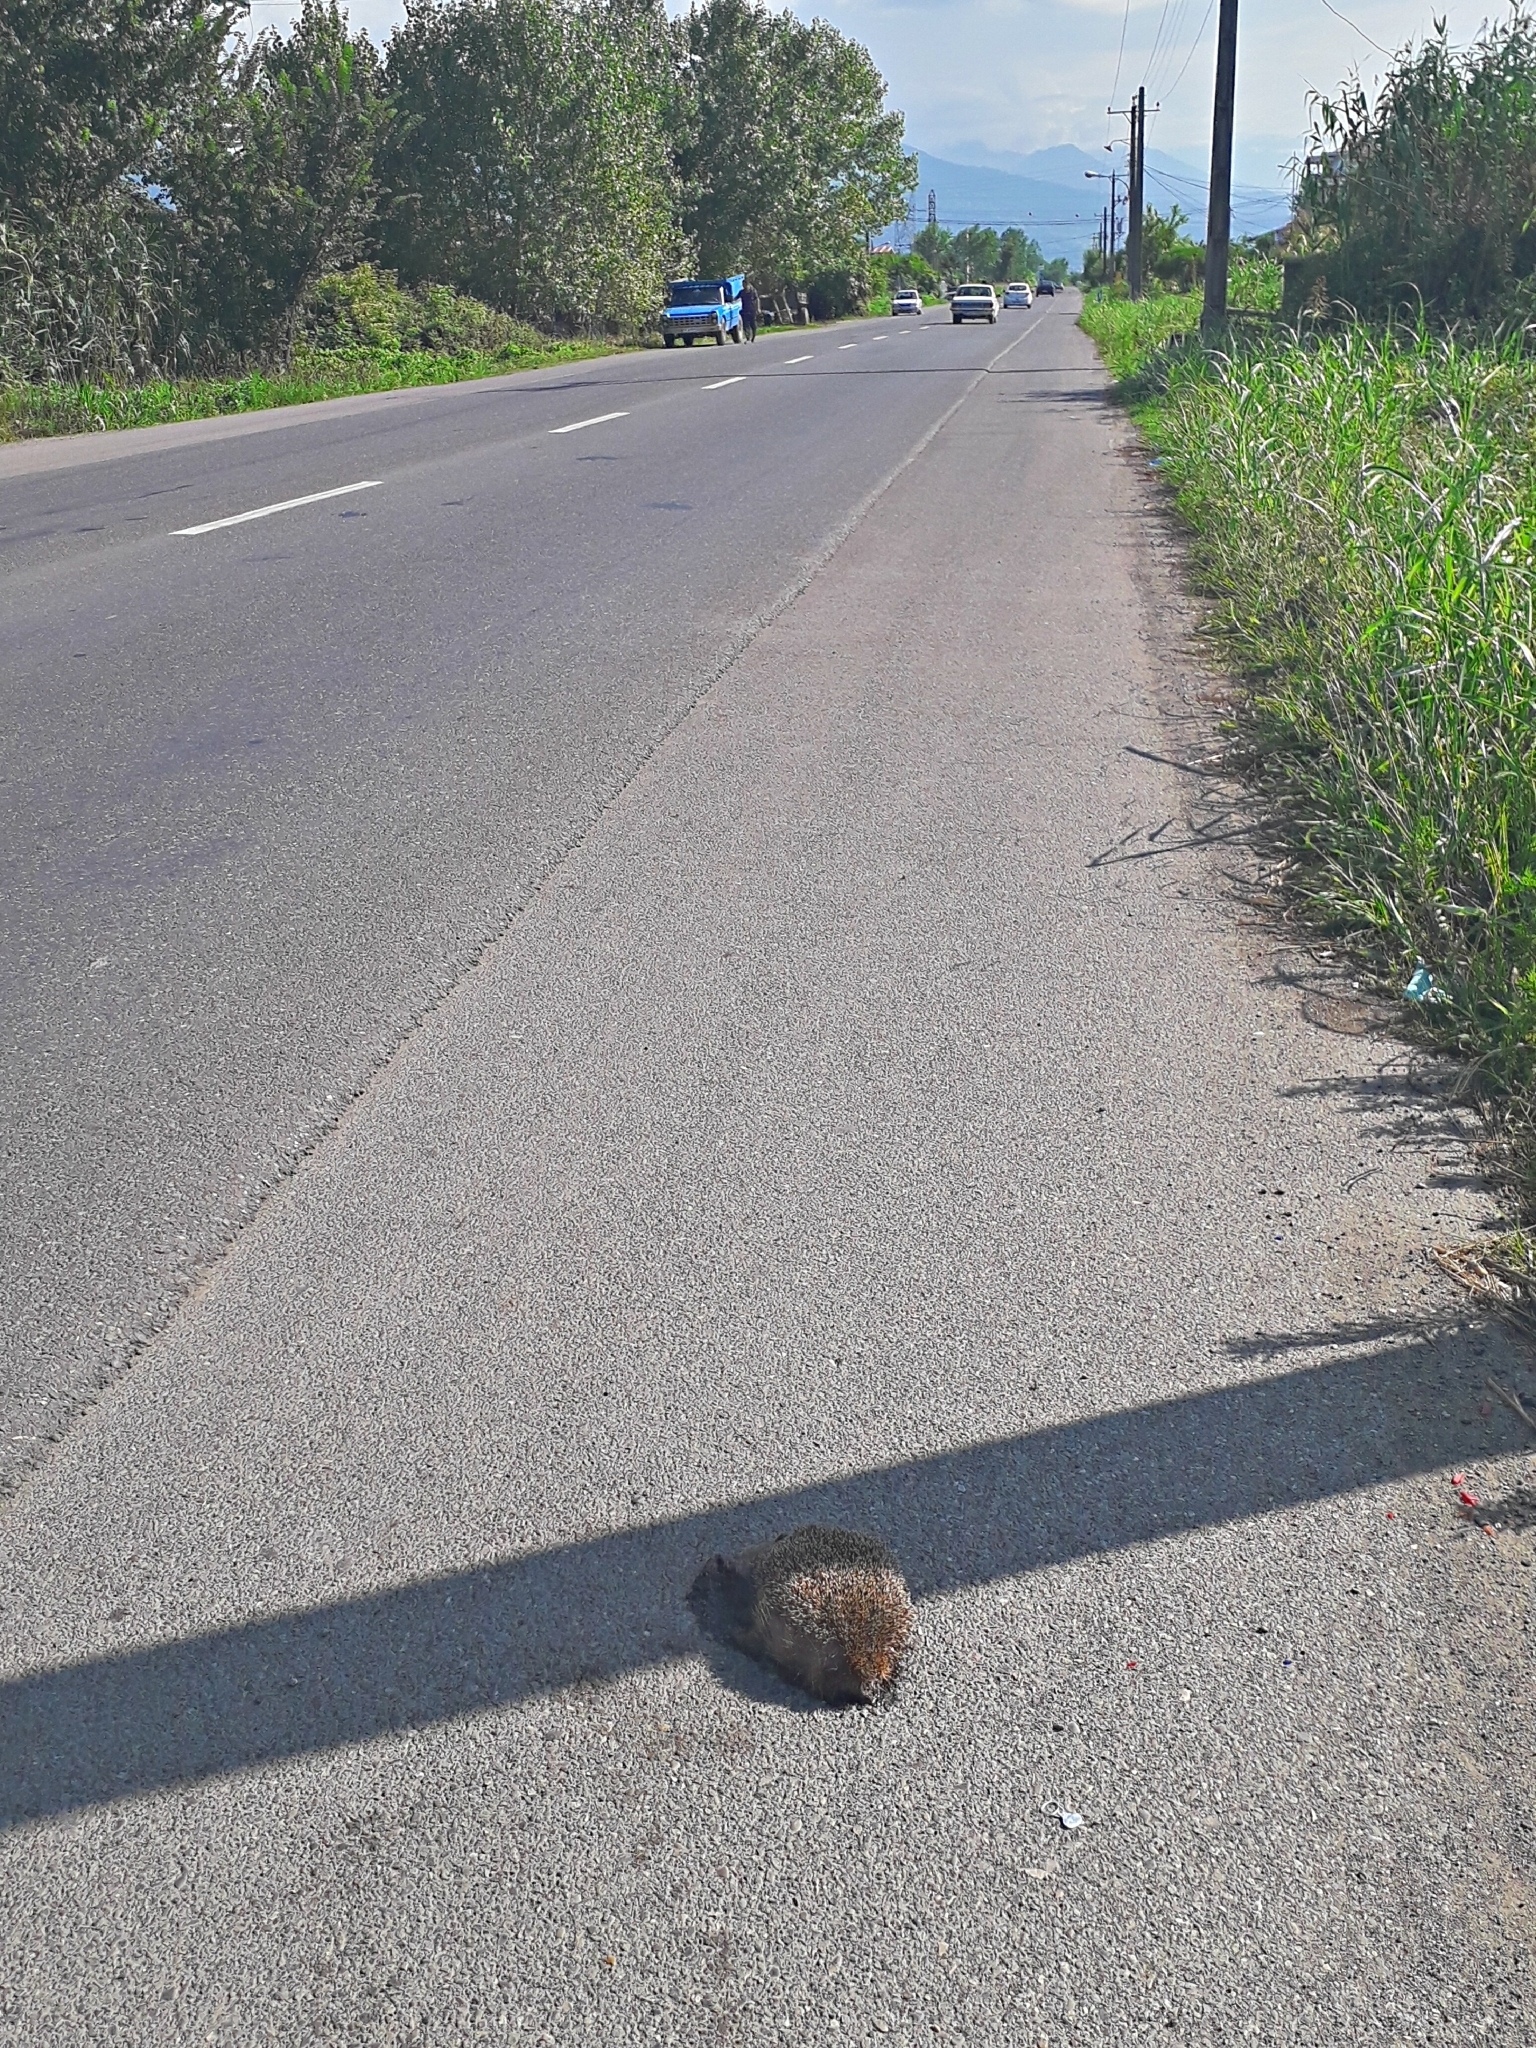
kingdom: Animalia
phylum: Chordata
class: Mammalia
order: Erinaceomorpha
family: Erinaceidae
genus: Erinaceus
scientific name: Erinaceus concolor
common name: Southern white-breasted hedgehog
